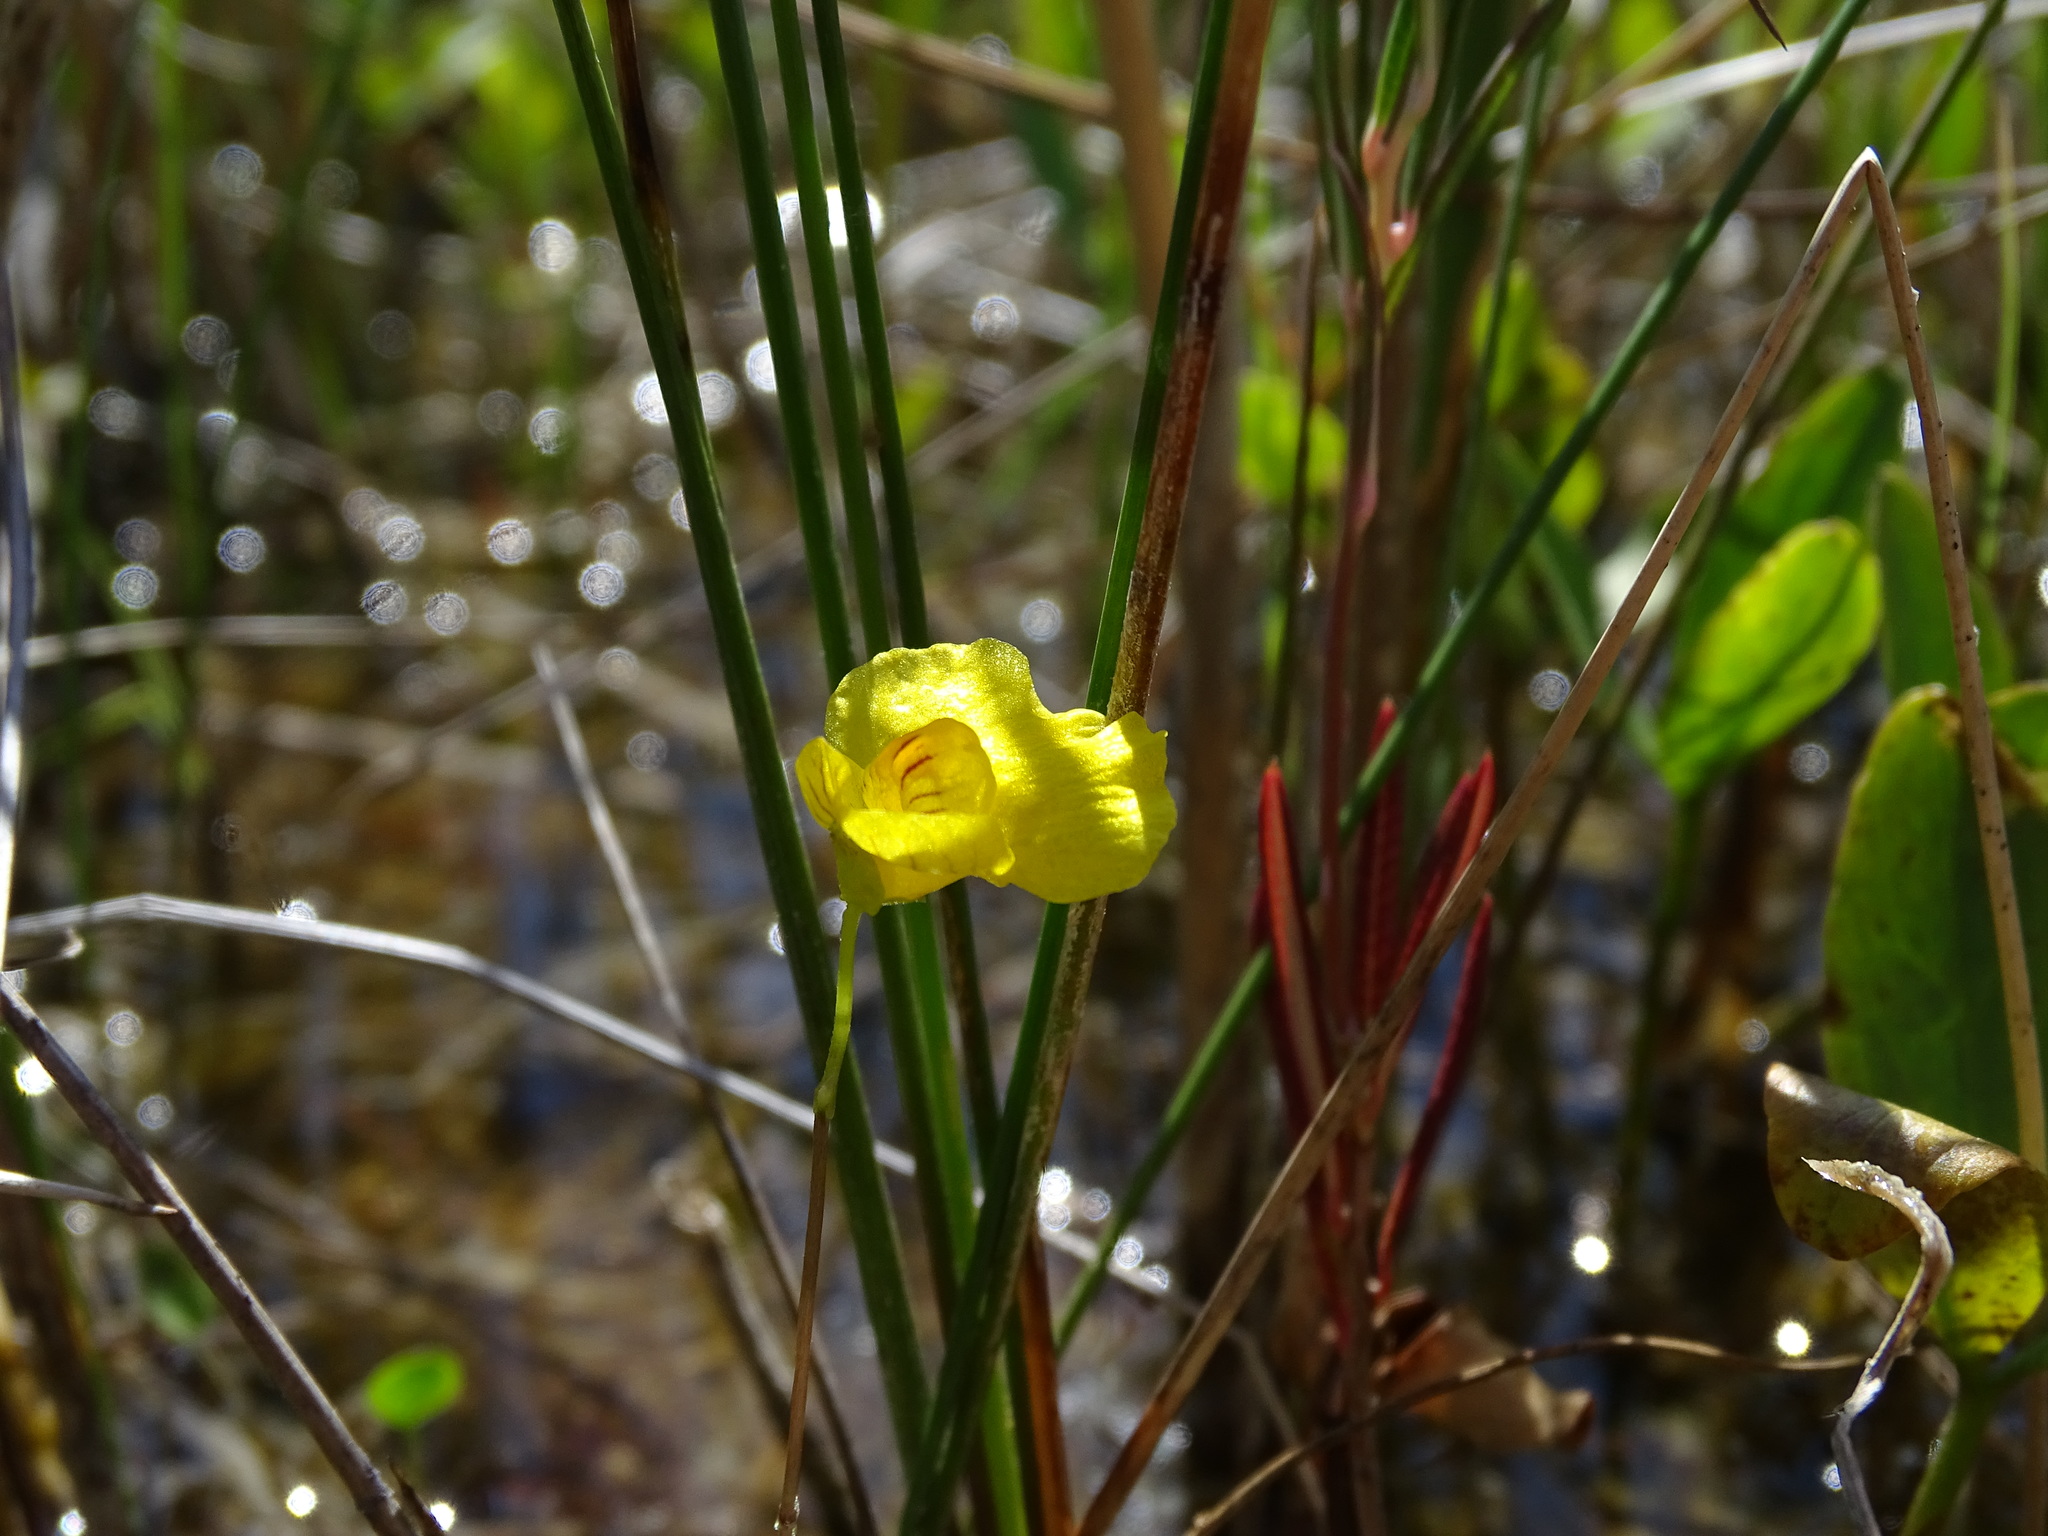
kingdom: Plantae
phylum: Tracheophyta
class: Magnoliopsida
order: Lamiales
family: Lentibulariaceae
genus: Utricularia
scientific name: Utricularia intermedia
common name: Intermediate bladderwort
